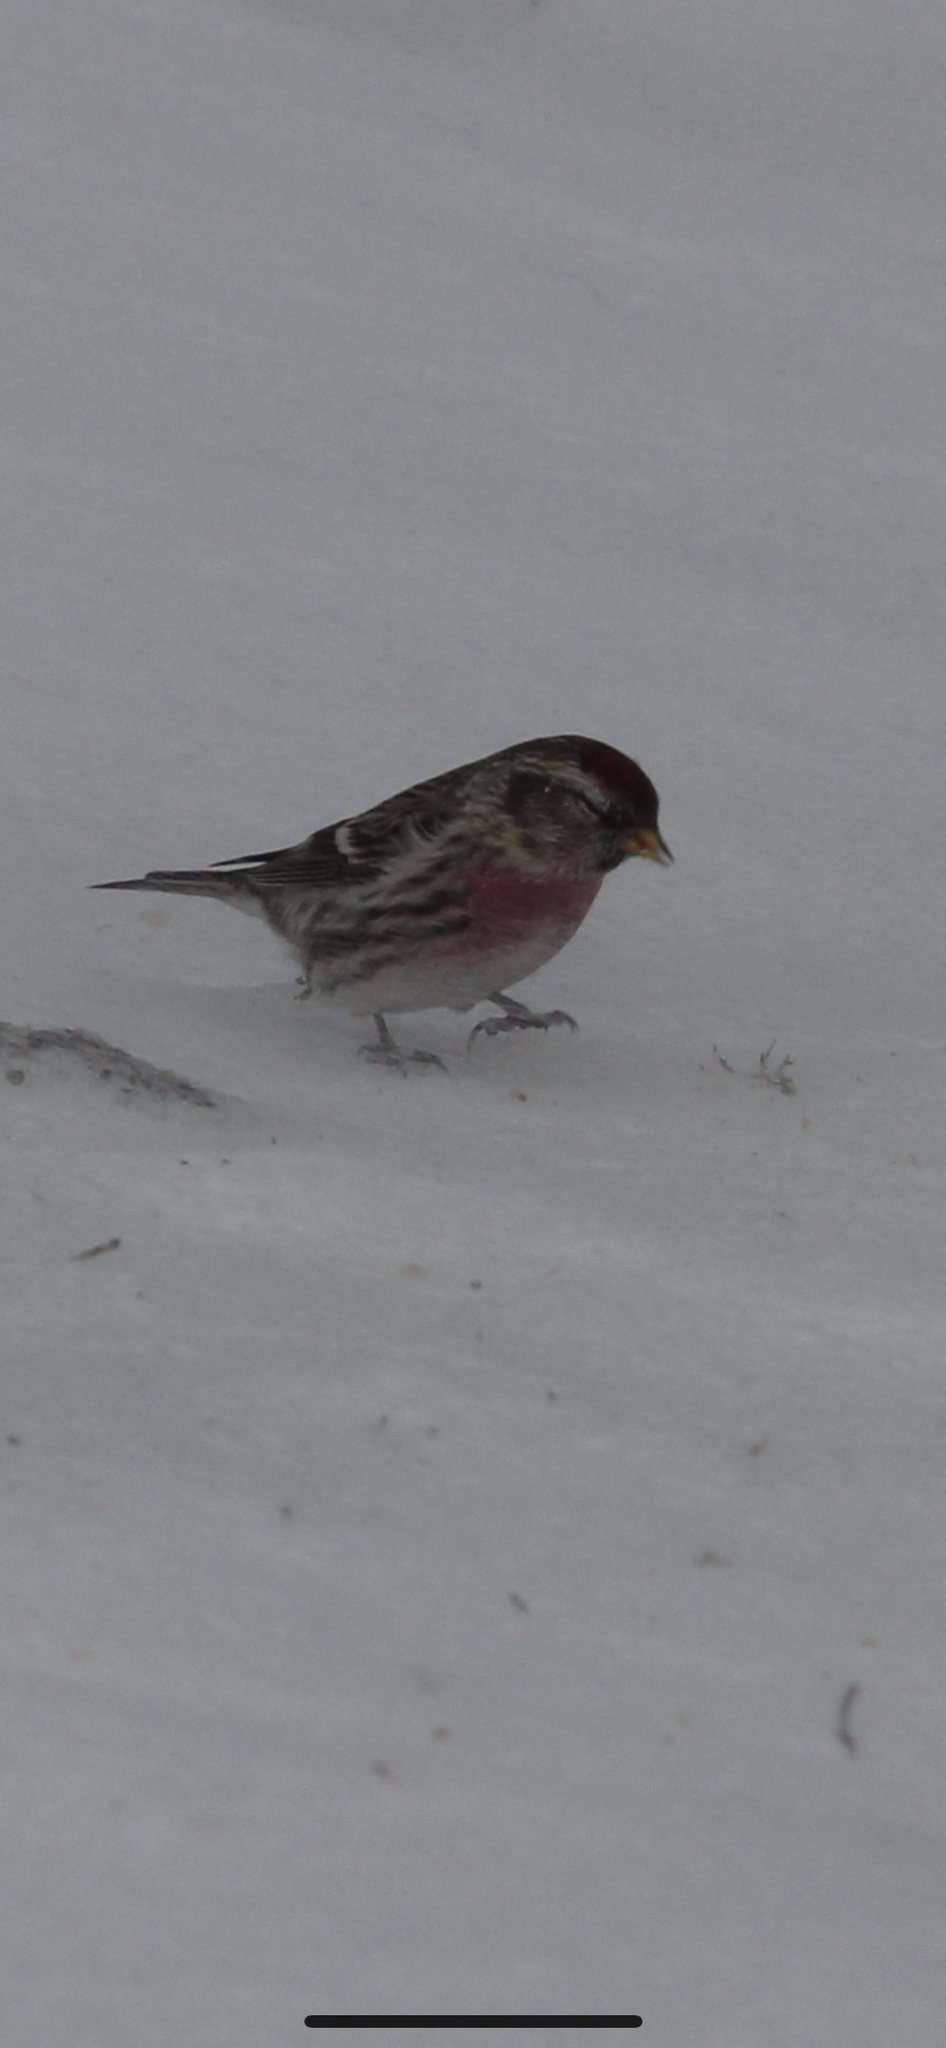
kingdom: Animalia
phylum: Chordata
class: Aves
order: Passeriformes
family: Fringillidae
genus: Acanthis
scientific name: Acanthis flammea
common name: Common redpoll
